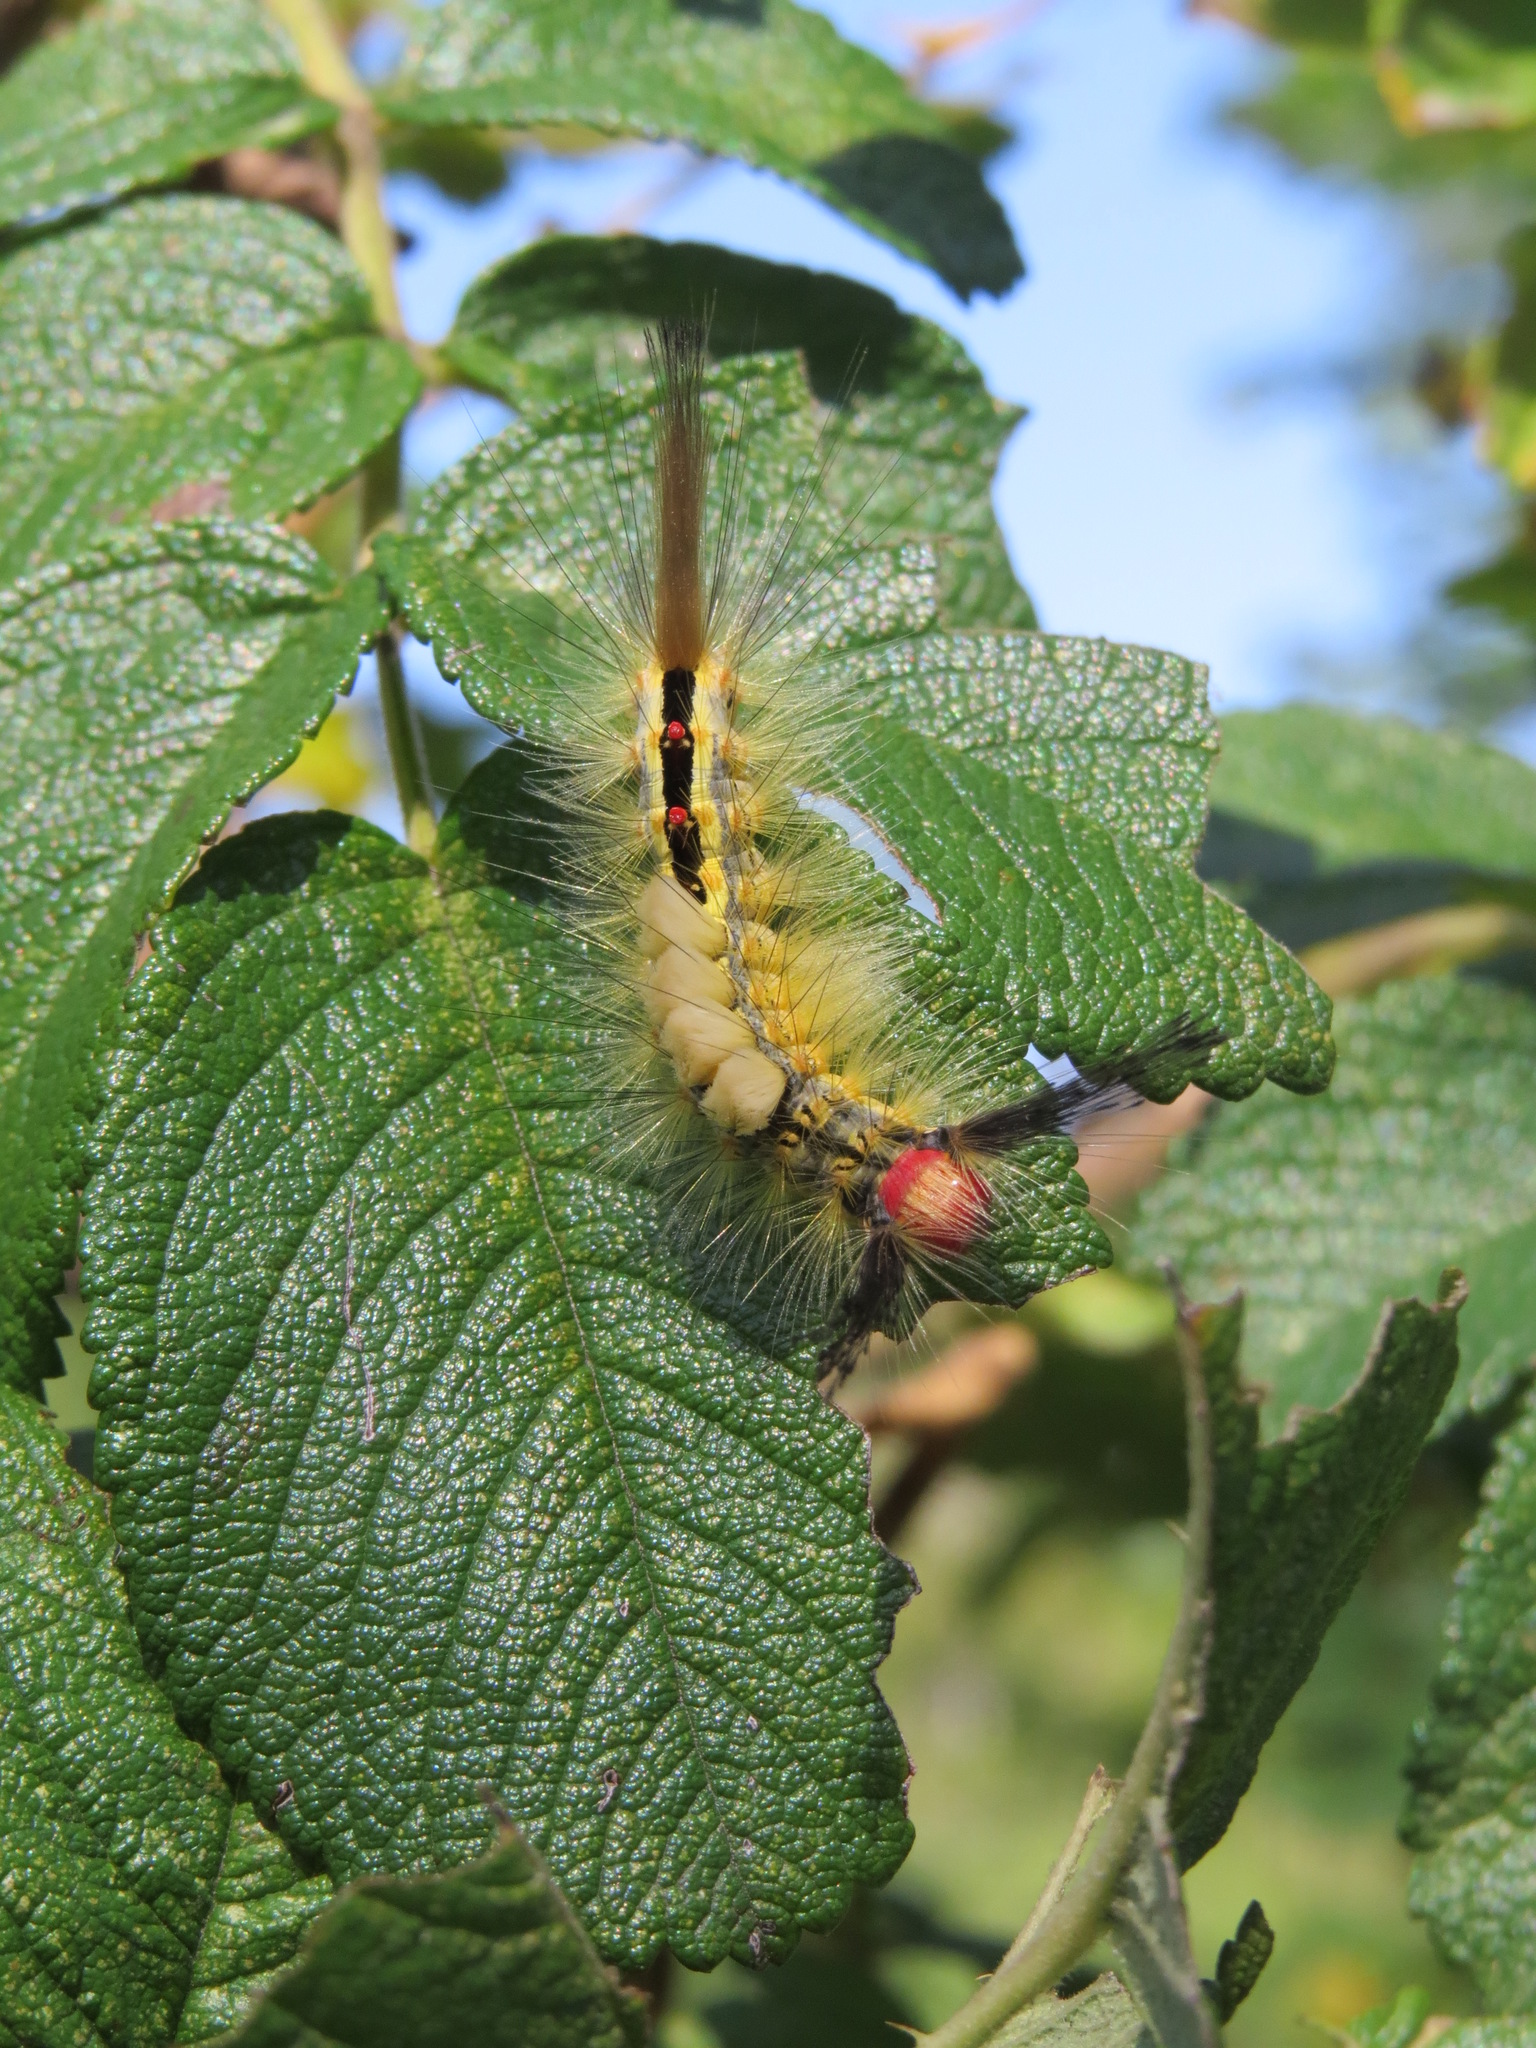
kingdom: Animalia
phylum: Arthropoda
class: Insecta
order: Lepidoptera
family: Erebidae
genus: Orgyia
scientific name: Orgyia leucostigma
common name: White-marked tussock moth
